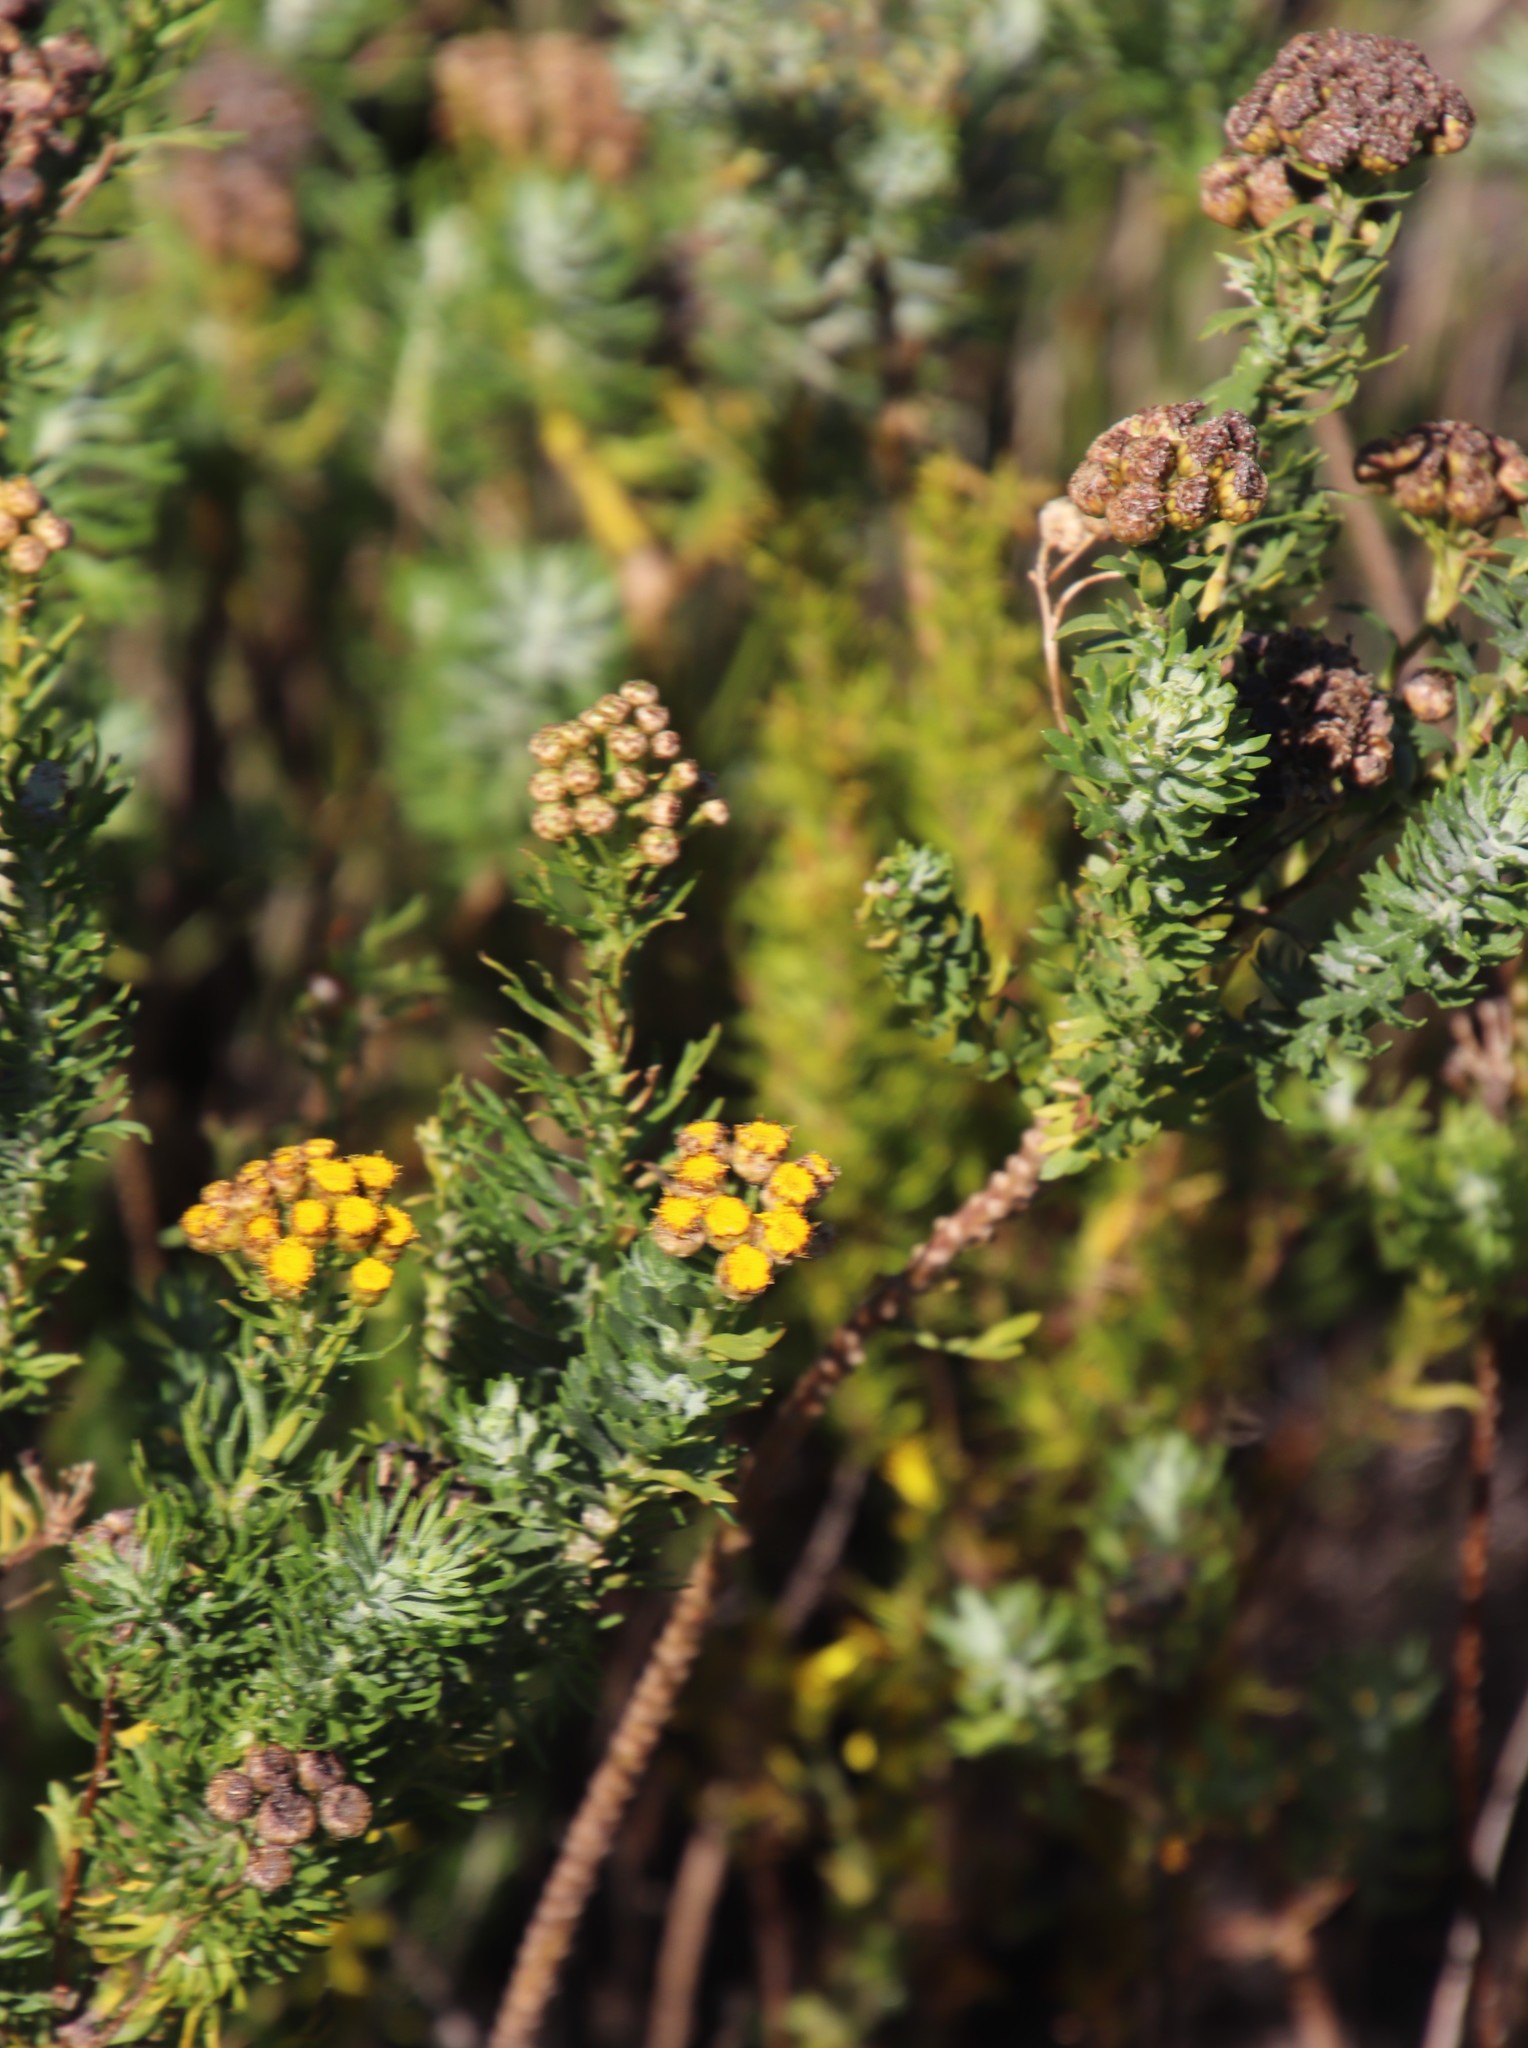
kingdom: Plantae
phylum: Tracheophyta
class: Magnoliopsida
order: Asterales
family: Asteraceae
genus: Athanasia
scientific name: Athanasia trifurcata
